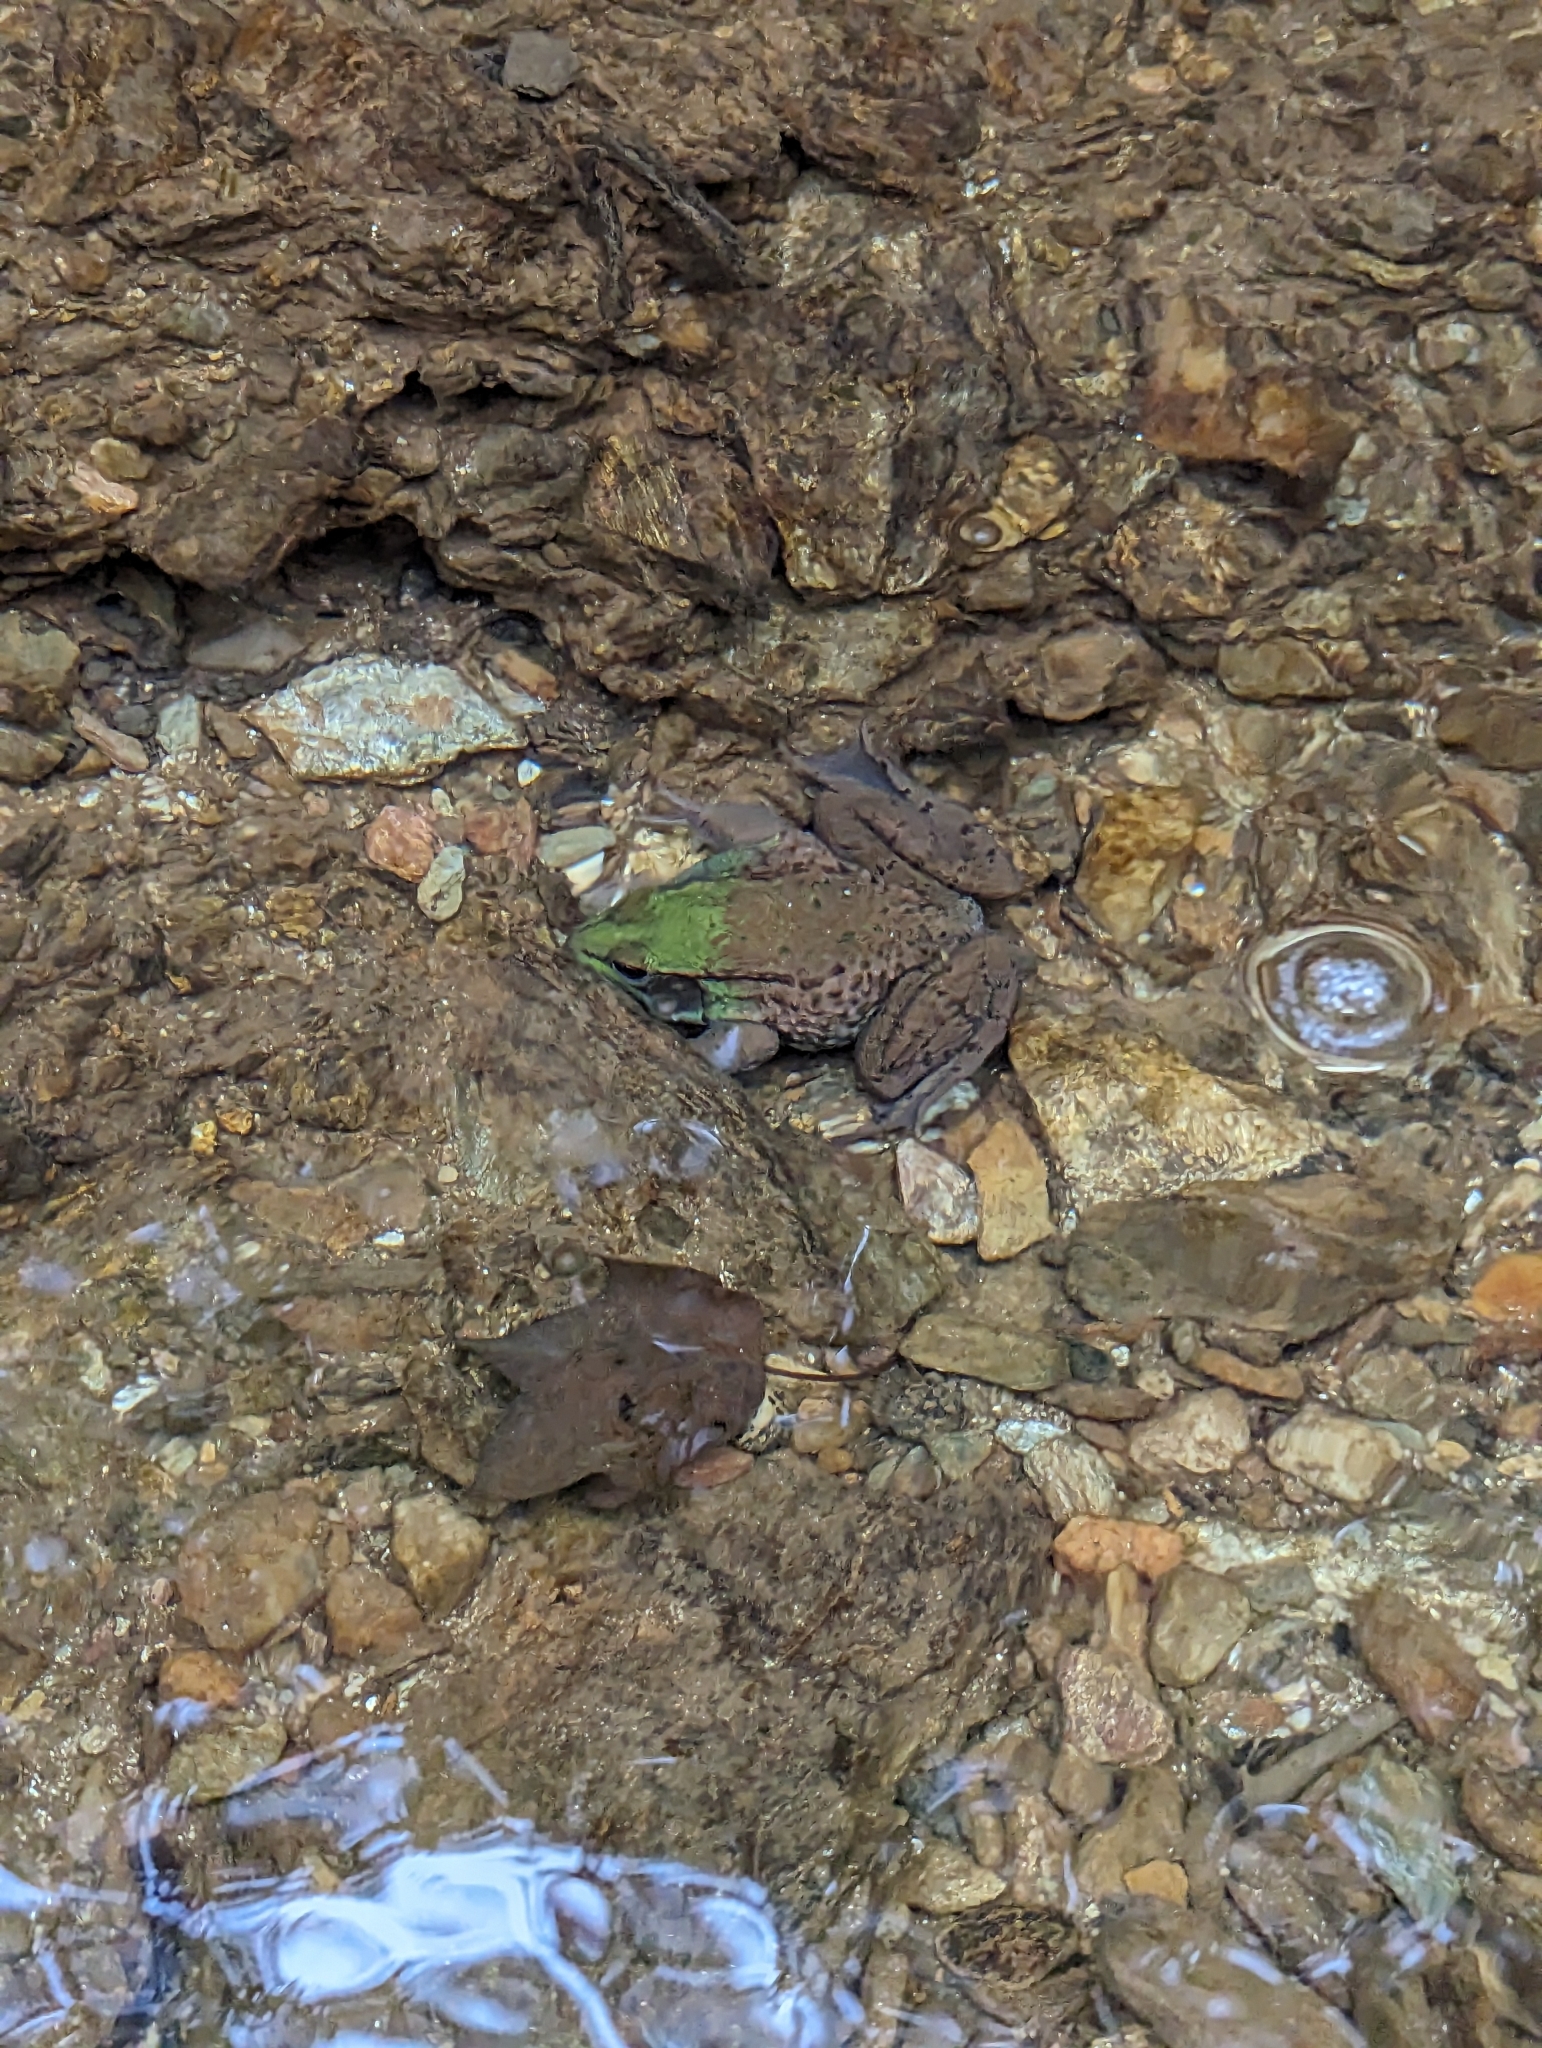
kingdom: Animalia
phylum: Chordata
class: Amphibia
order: Anura
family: Ranidae
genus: Lithobates
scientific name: Lithobates clamitans
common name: Green frog
